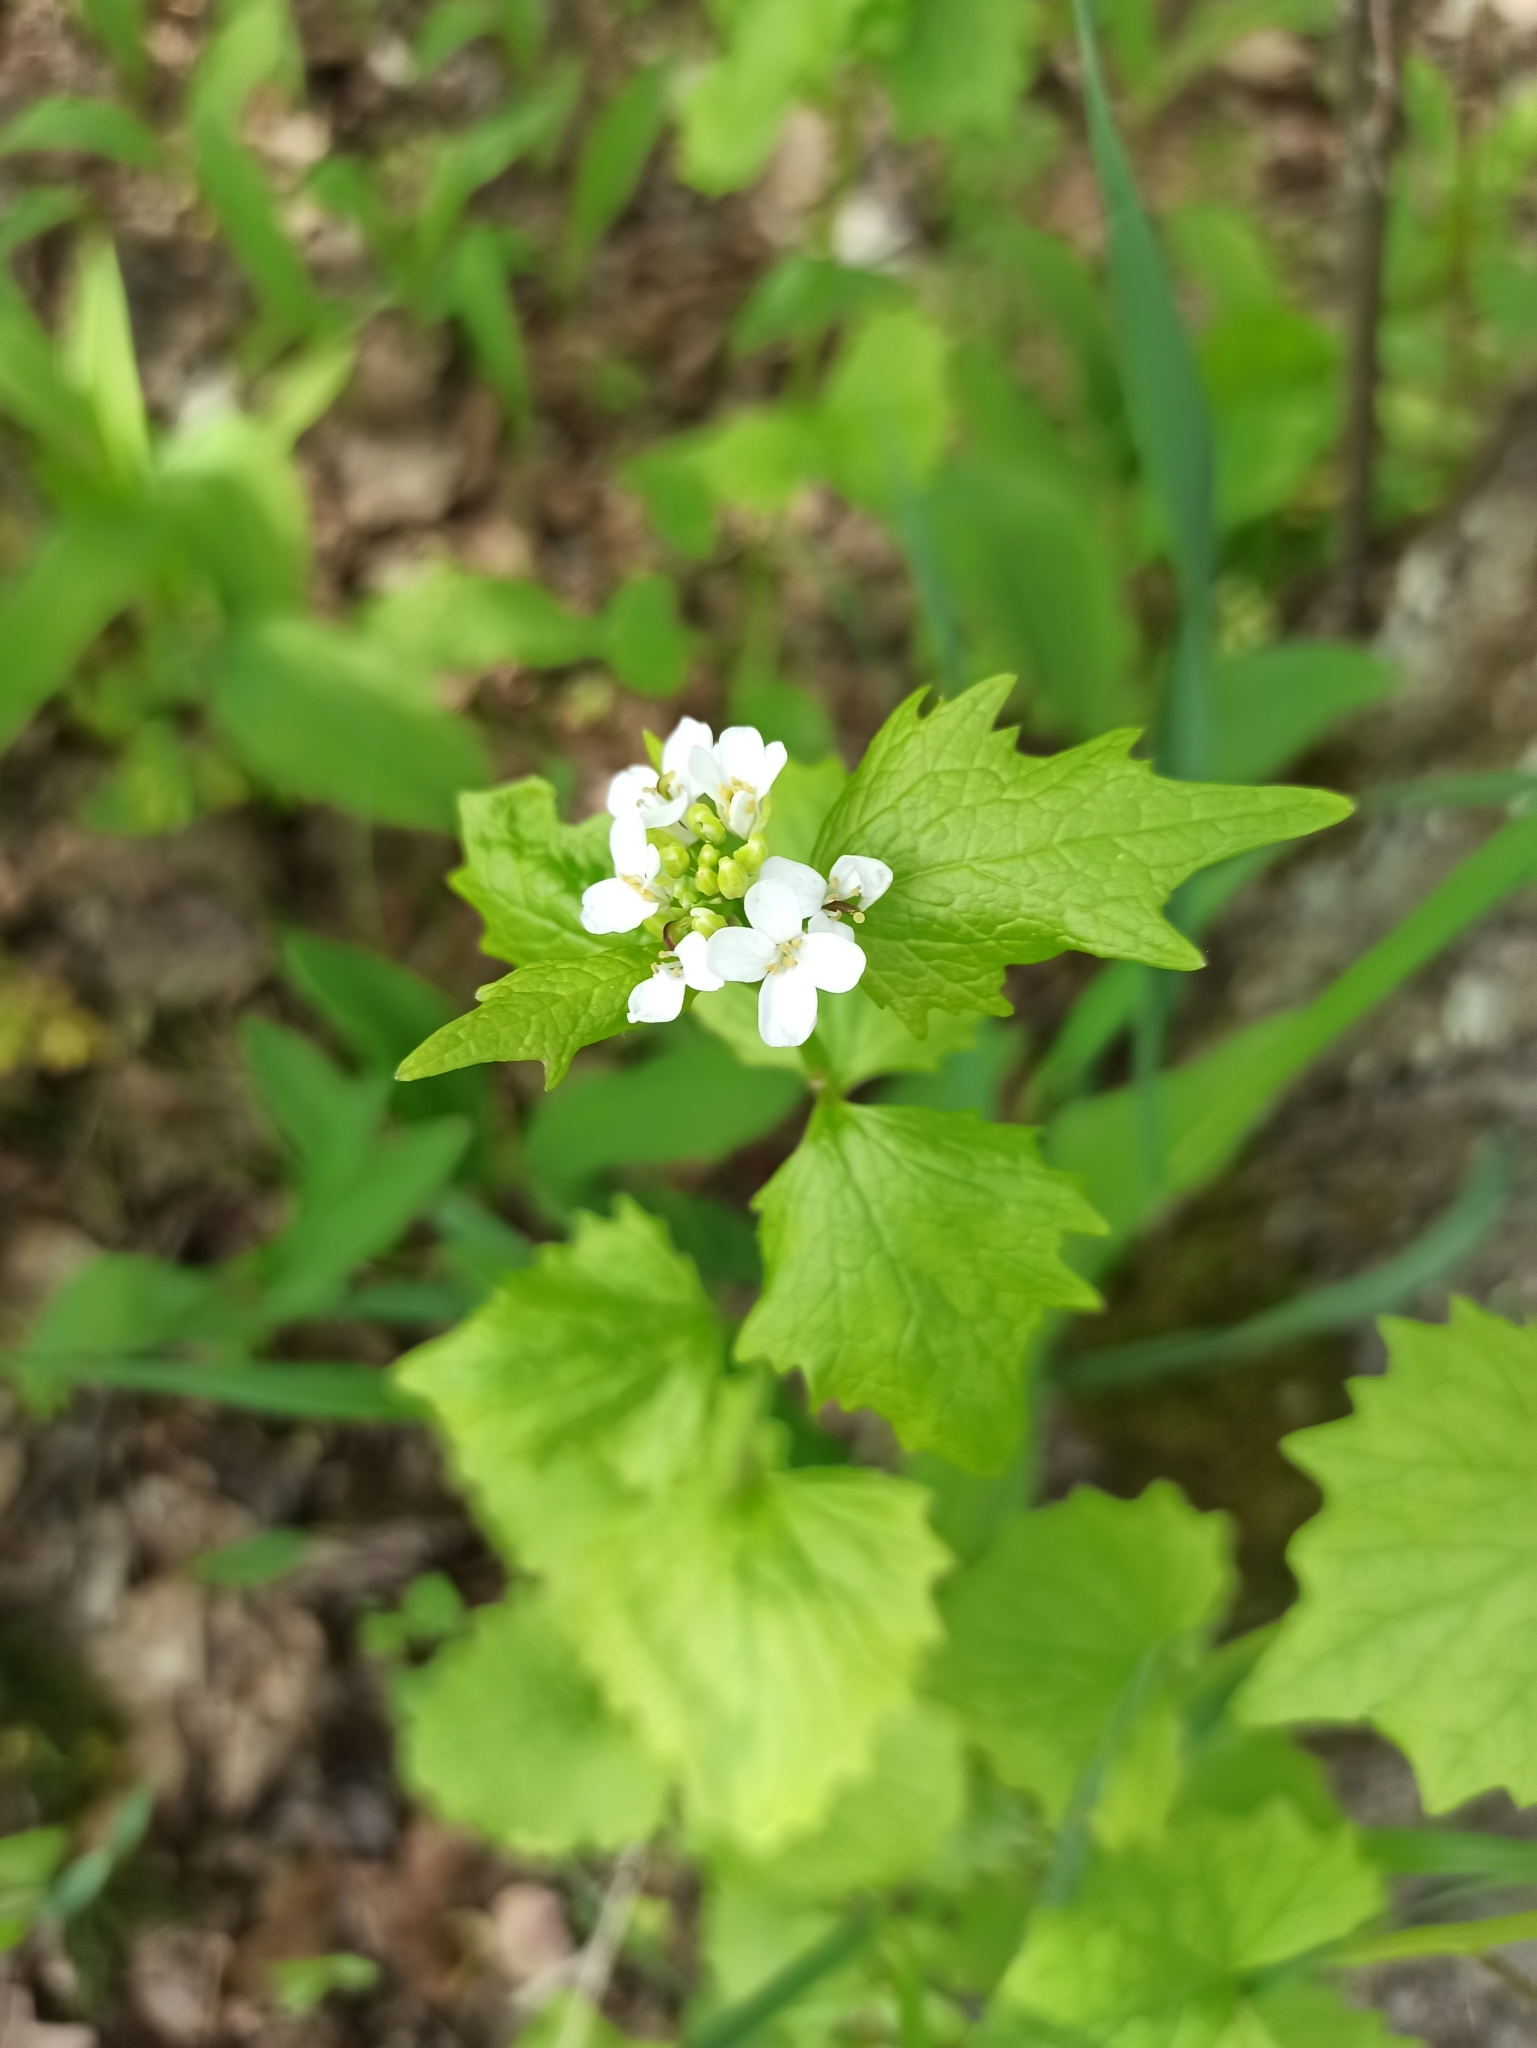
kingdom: Plantae
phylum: Tracheophyta
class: Magnoliopsida
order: Brassicales
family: Brassicaceae
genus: Alliaria
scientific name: Alliaria petiolata
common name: Garlic mustard
